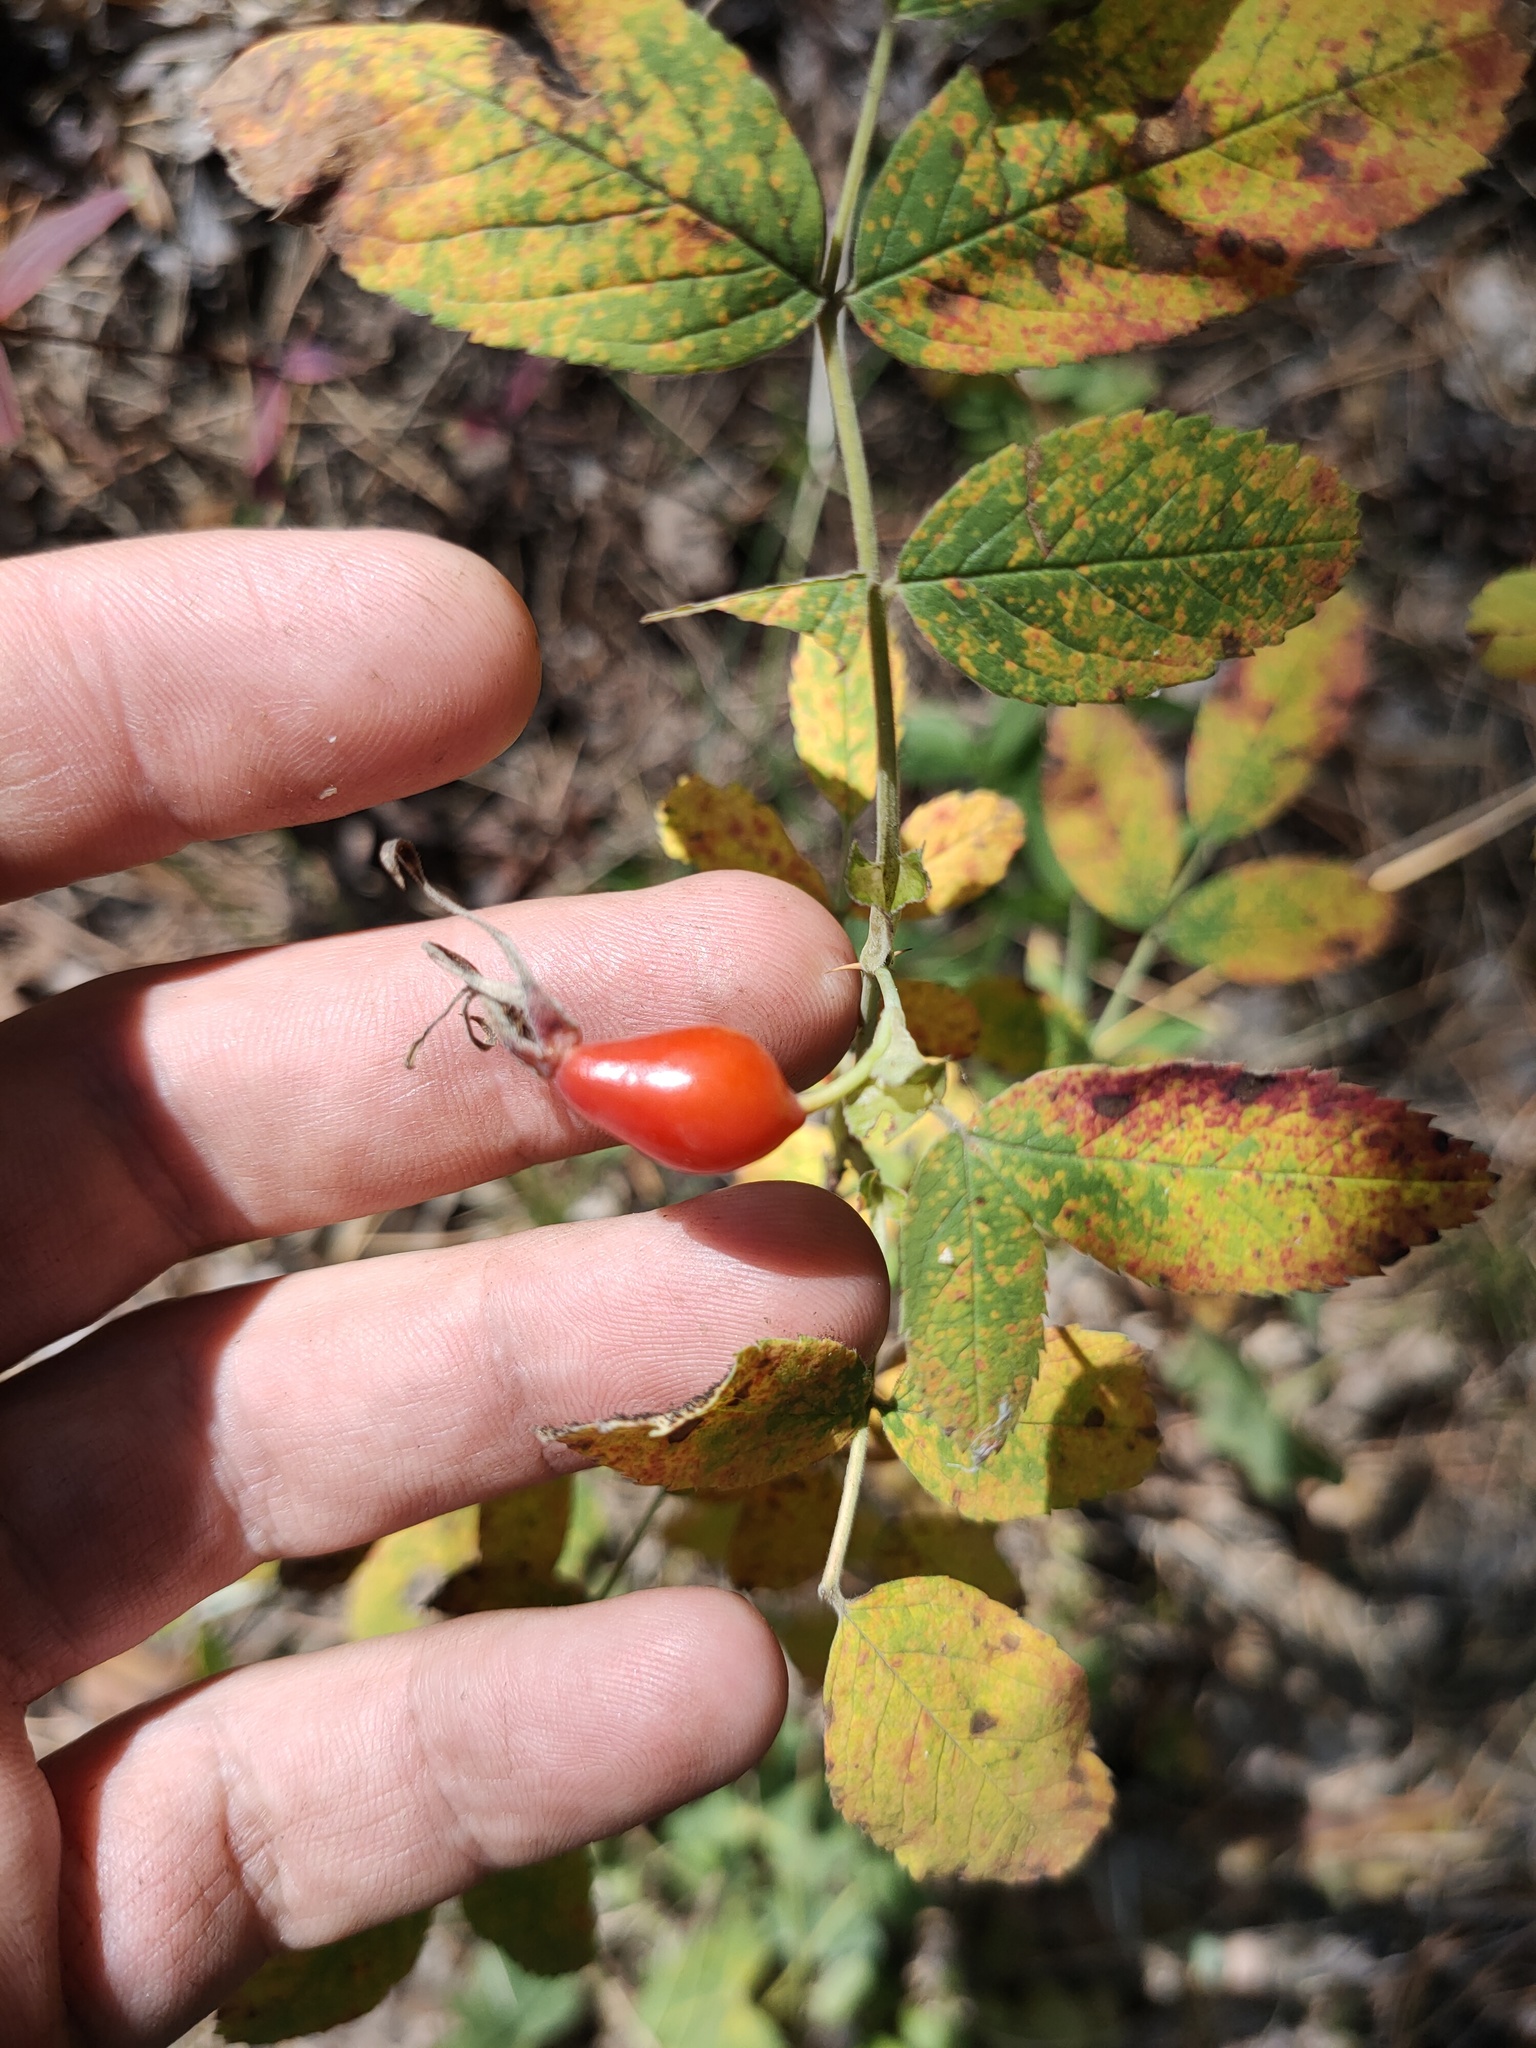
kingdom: Plantae
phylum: Tracheophyta
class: Magnoliopsida
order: Rosales
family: Rosaceae
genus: Rosa
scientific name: Rosa
